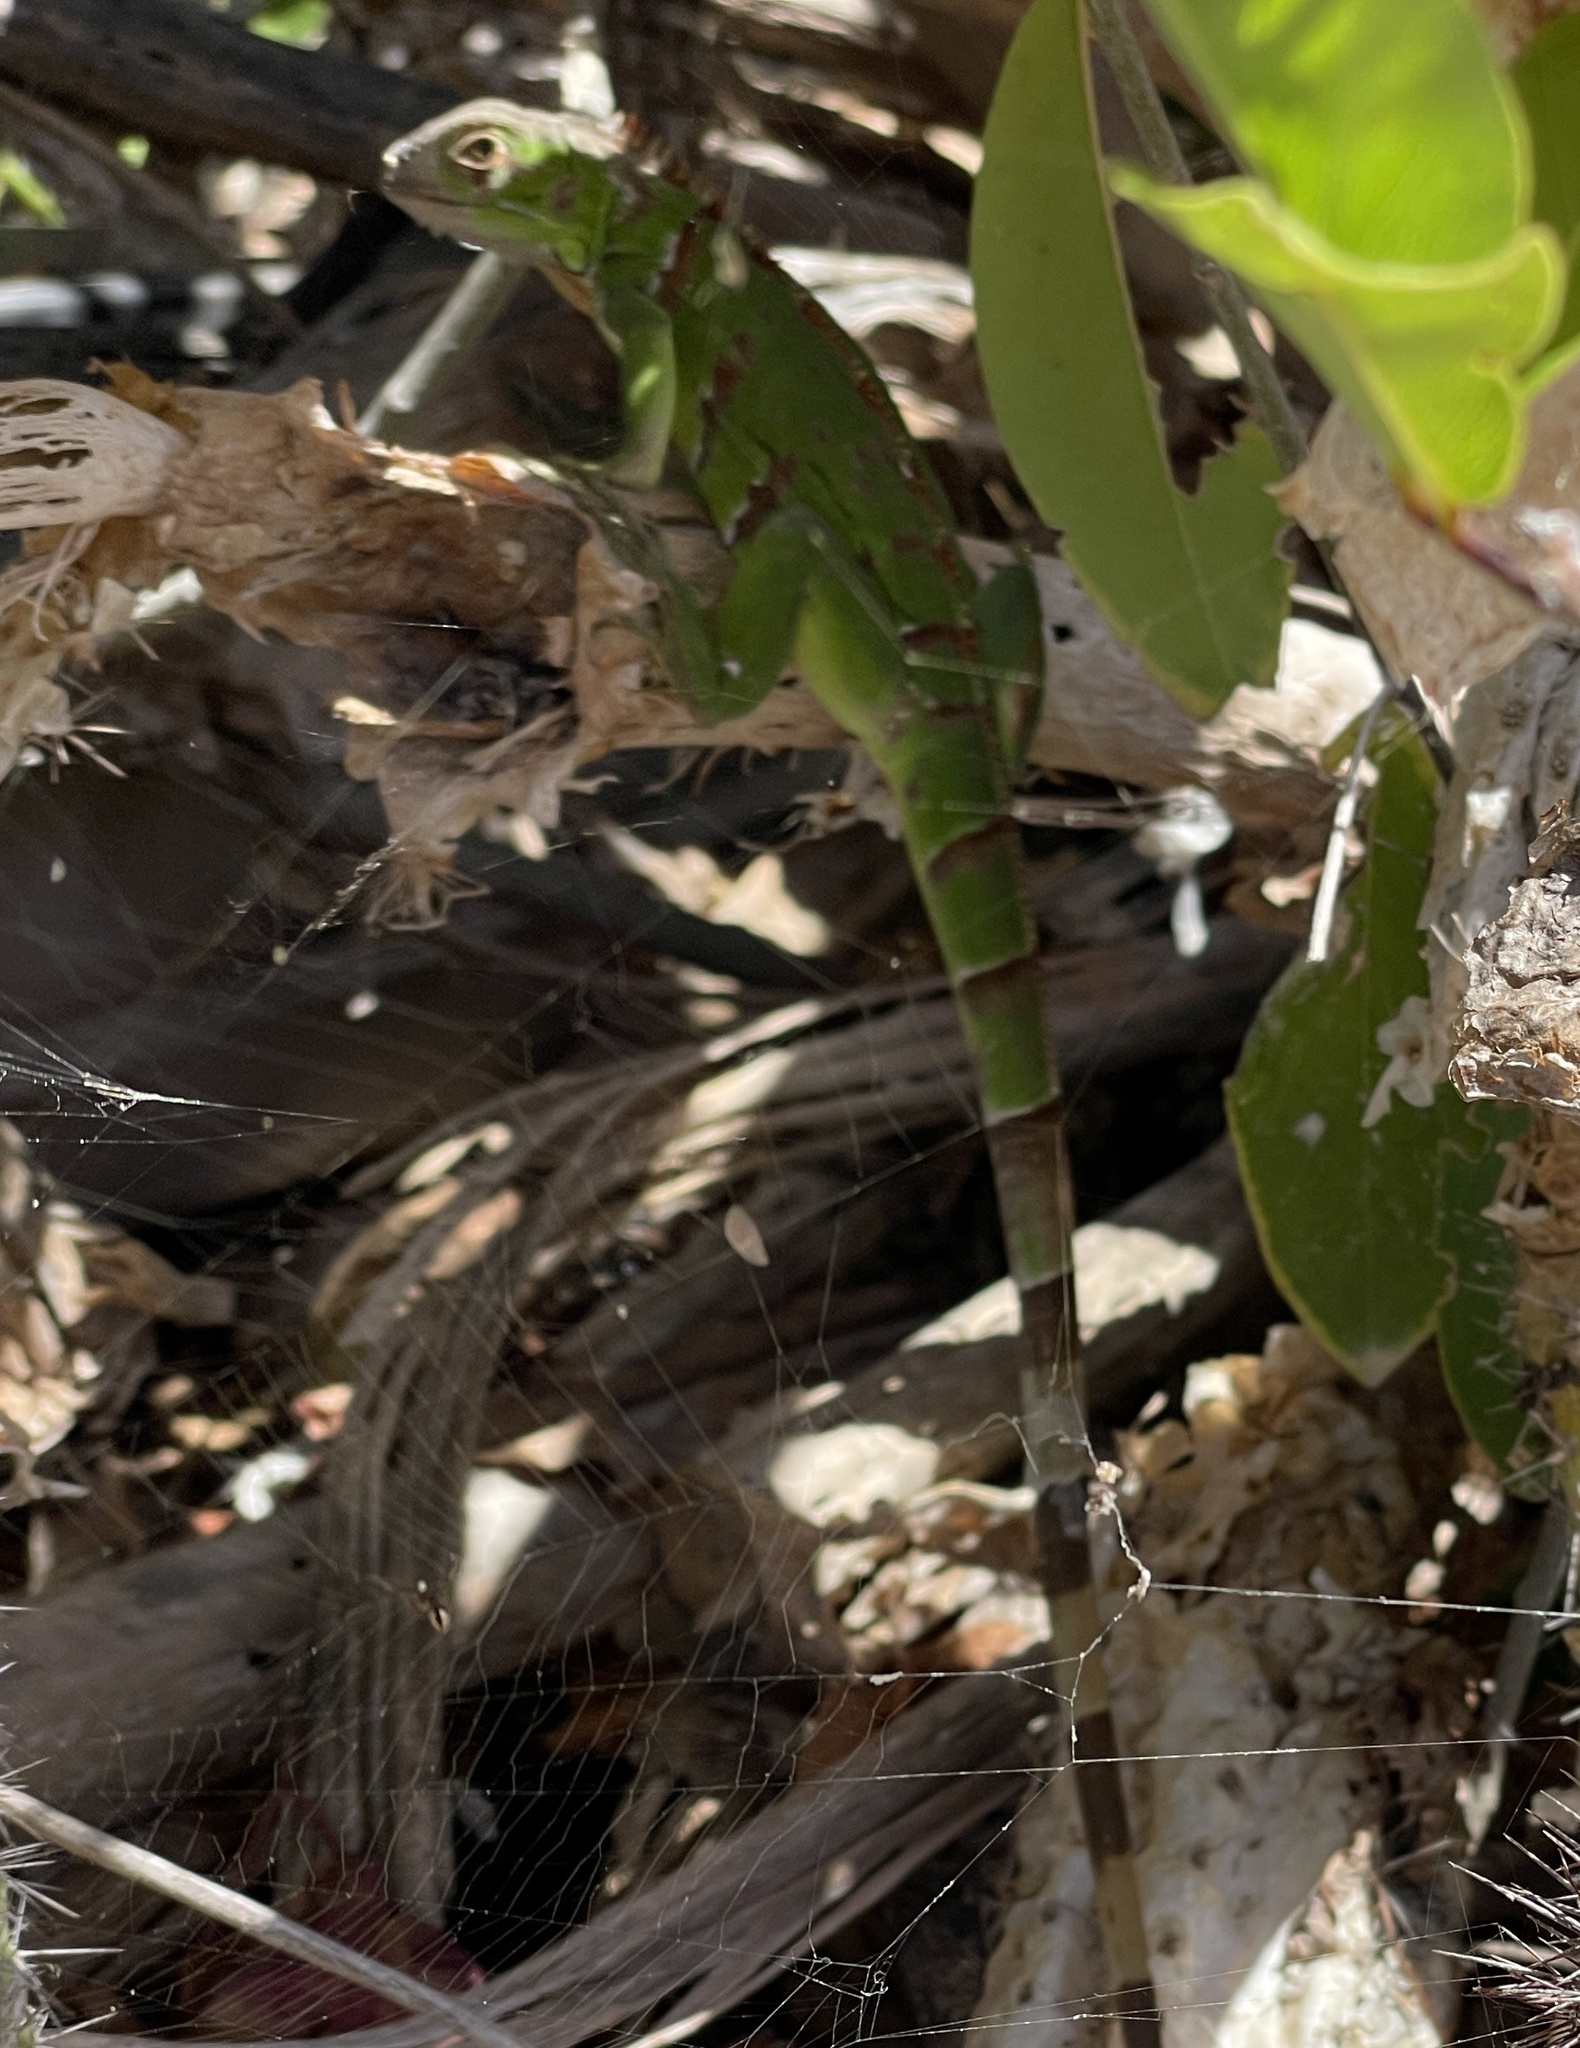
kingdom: Animalia
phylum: Chordata
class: Squamata
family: Iguanidae
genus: Iguana
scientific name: Iguana iguana
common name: Green iguana
